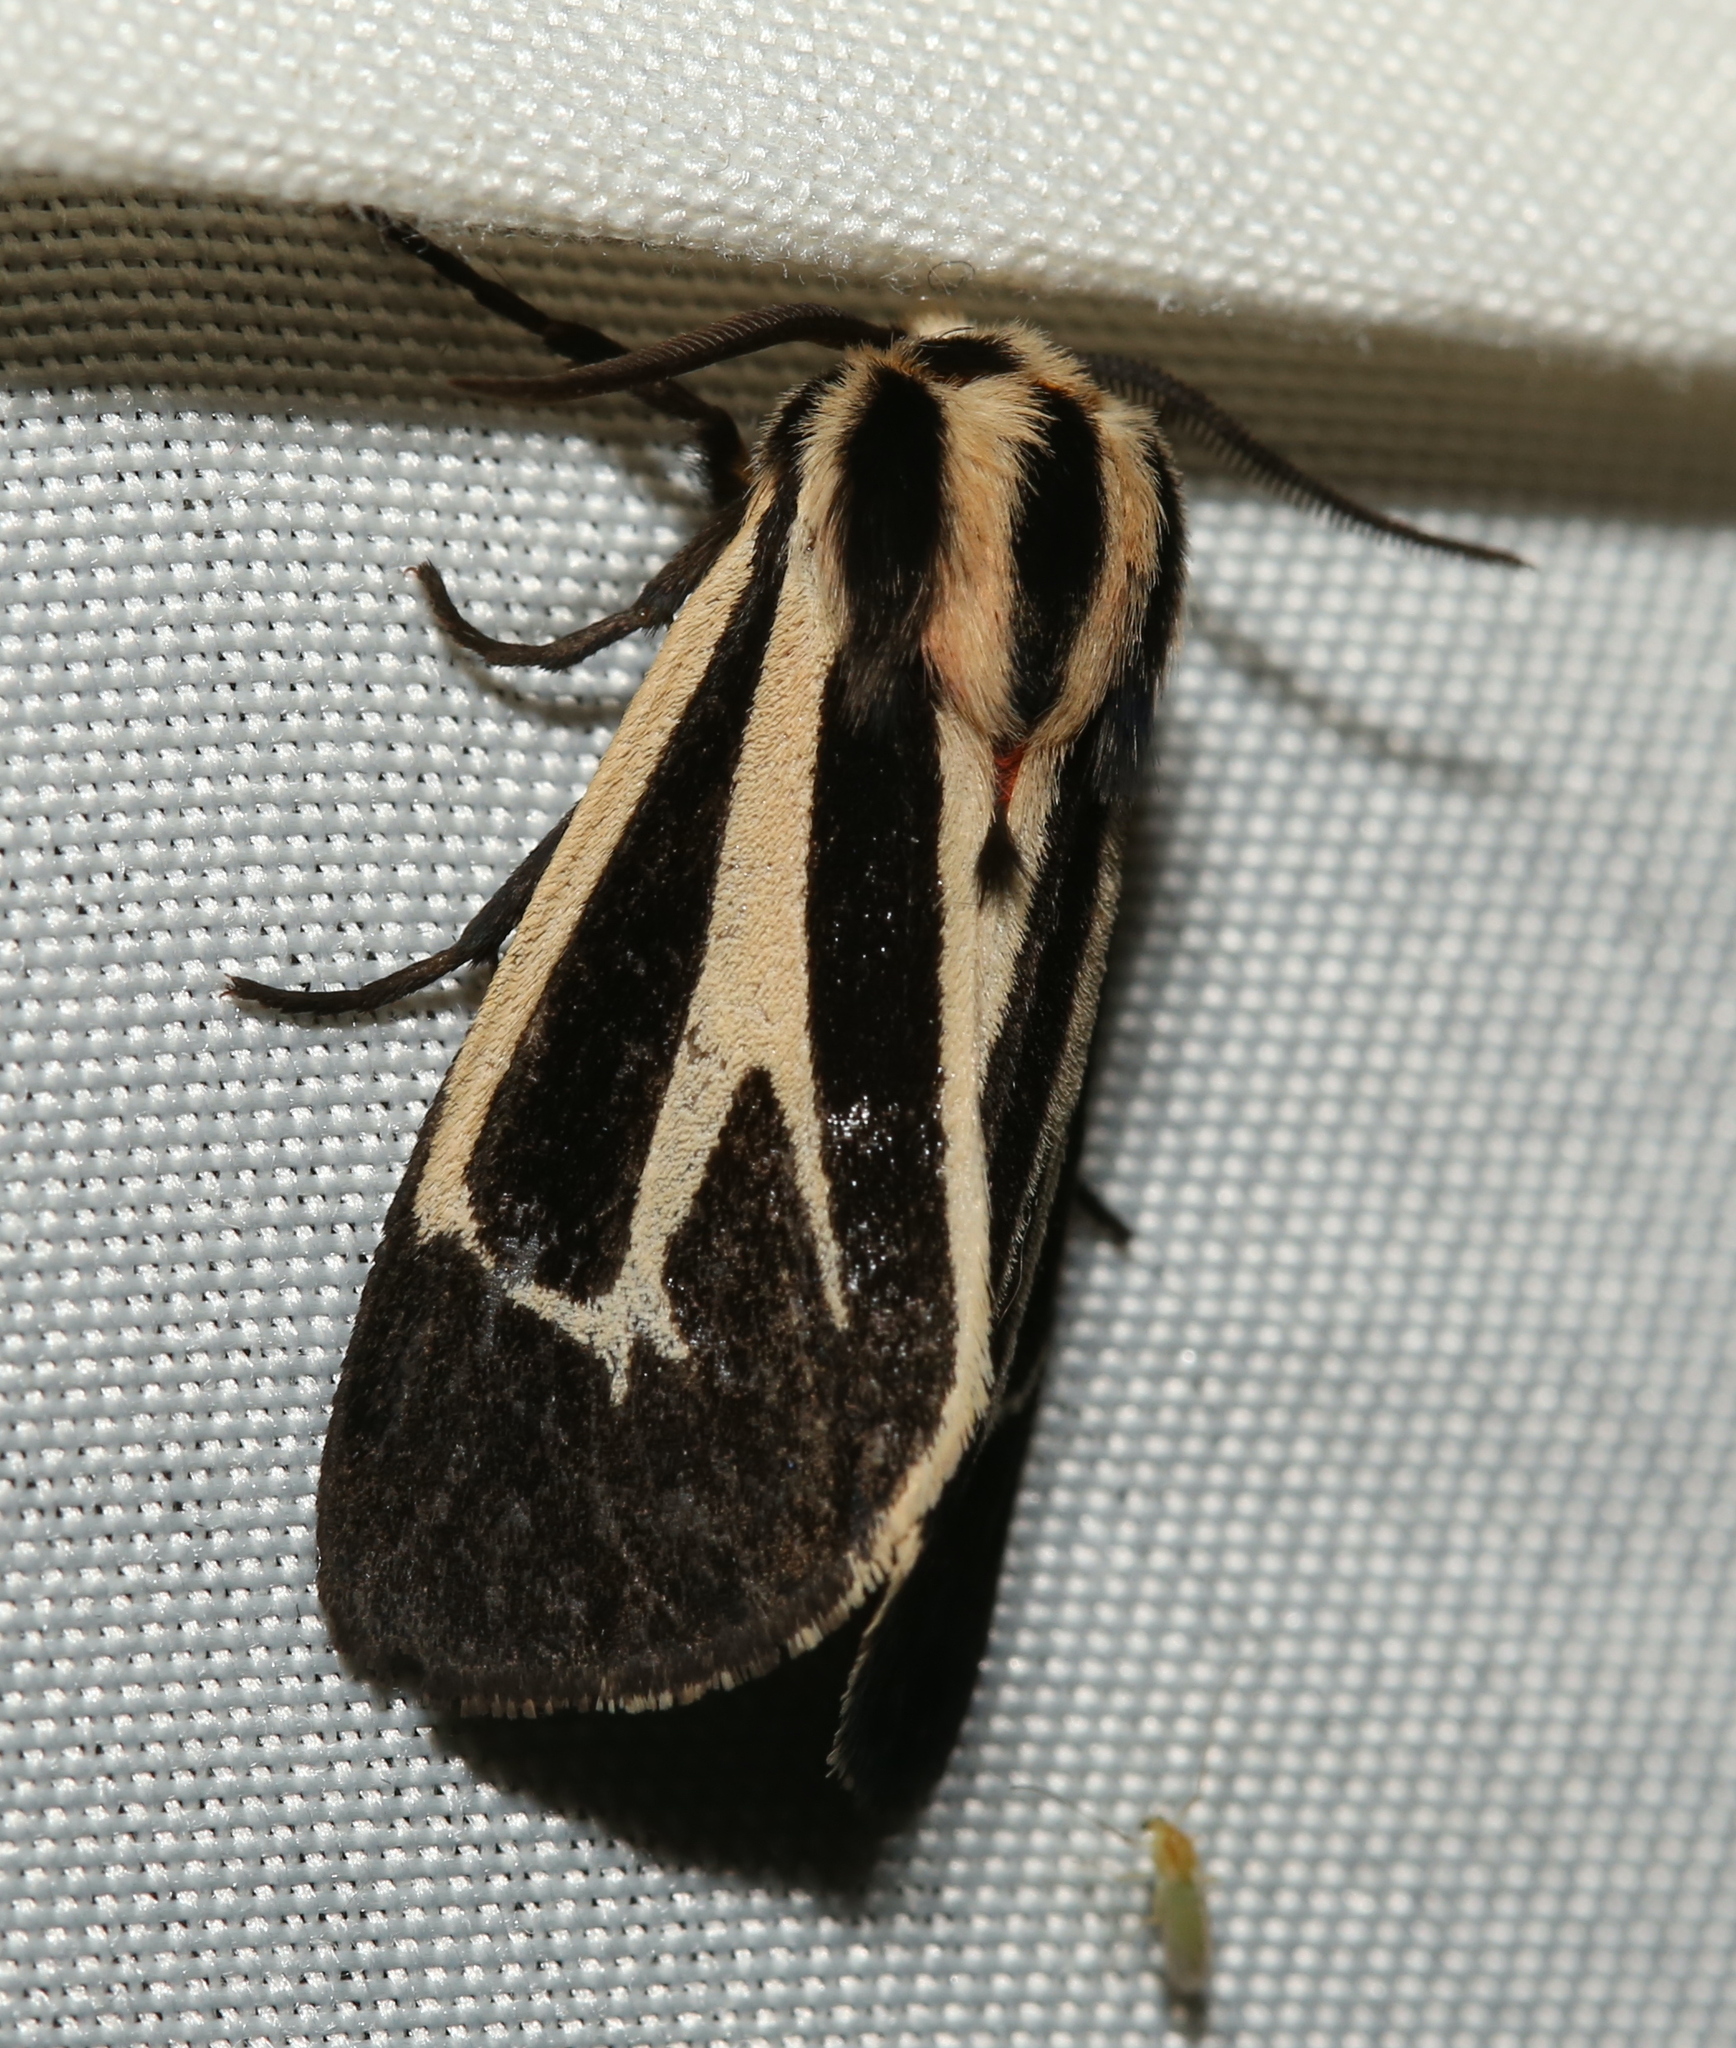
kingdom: Animalia
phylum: Arthropoda
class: Insecta
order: Lepidoptera
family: Erebidae
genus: Apantesis
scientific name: Apantesis phalerata
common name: Harnessed tiger moth
